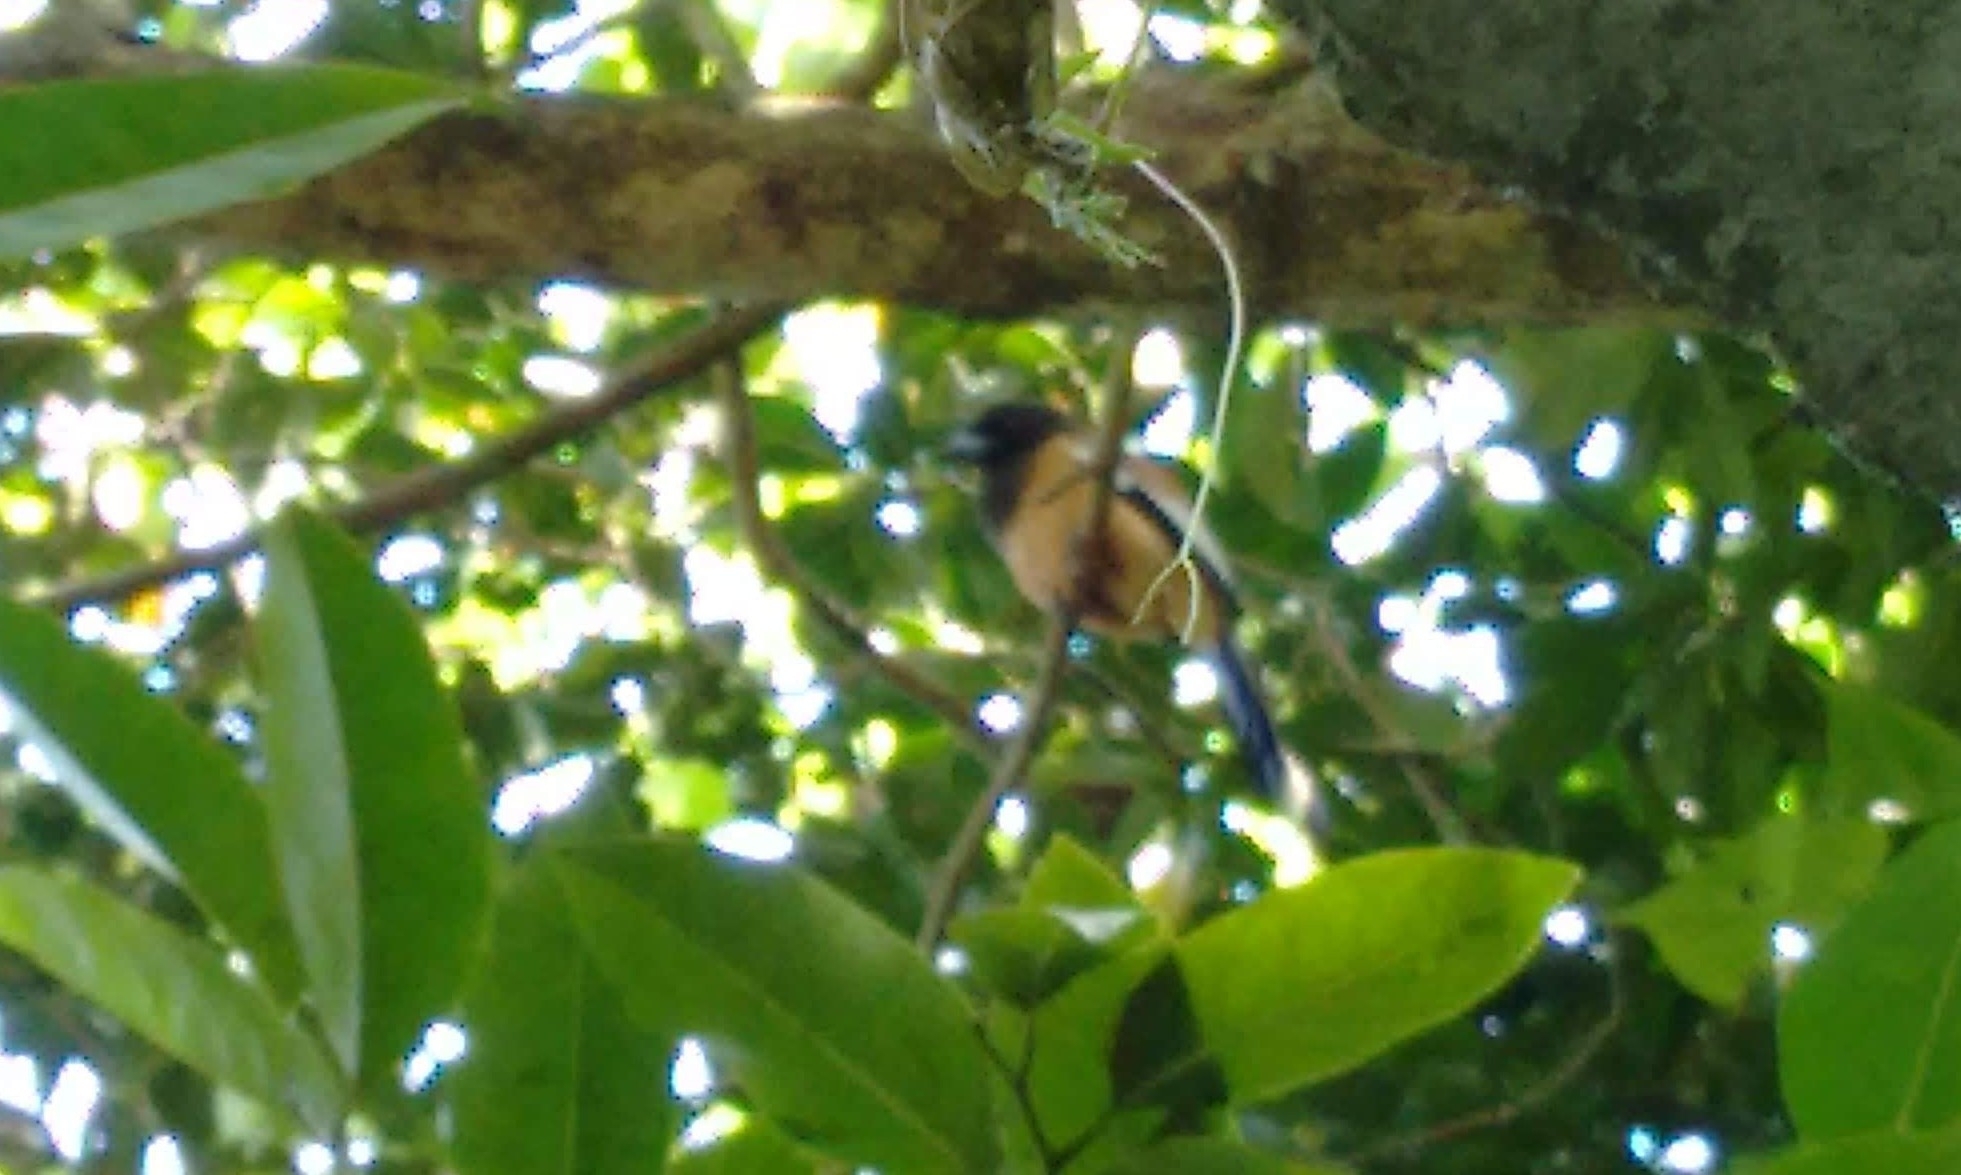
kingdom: Animalia
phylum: Chordata
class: Aves
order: Passeriformes
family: Corvidae
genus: Dendrocitta
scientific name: Dendrocitta vagabunda
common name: Rufous treepie
